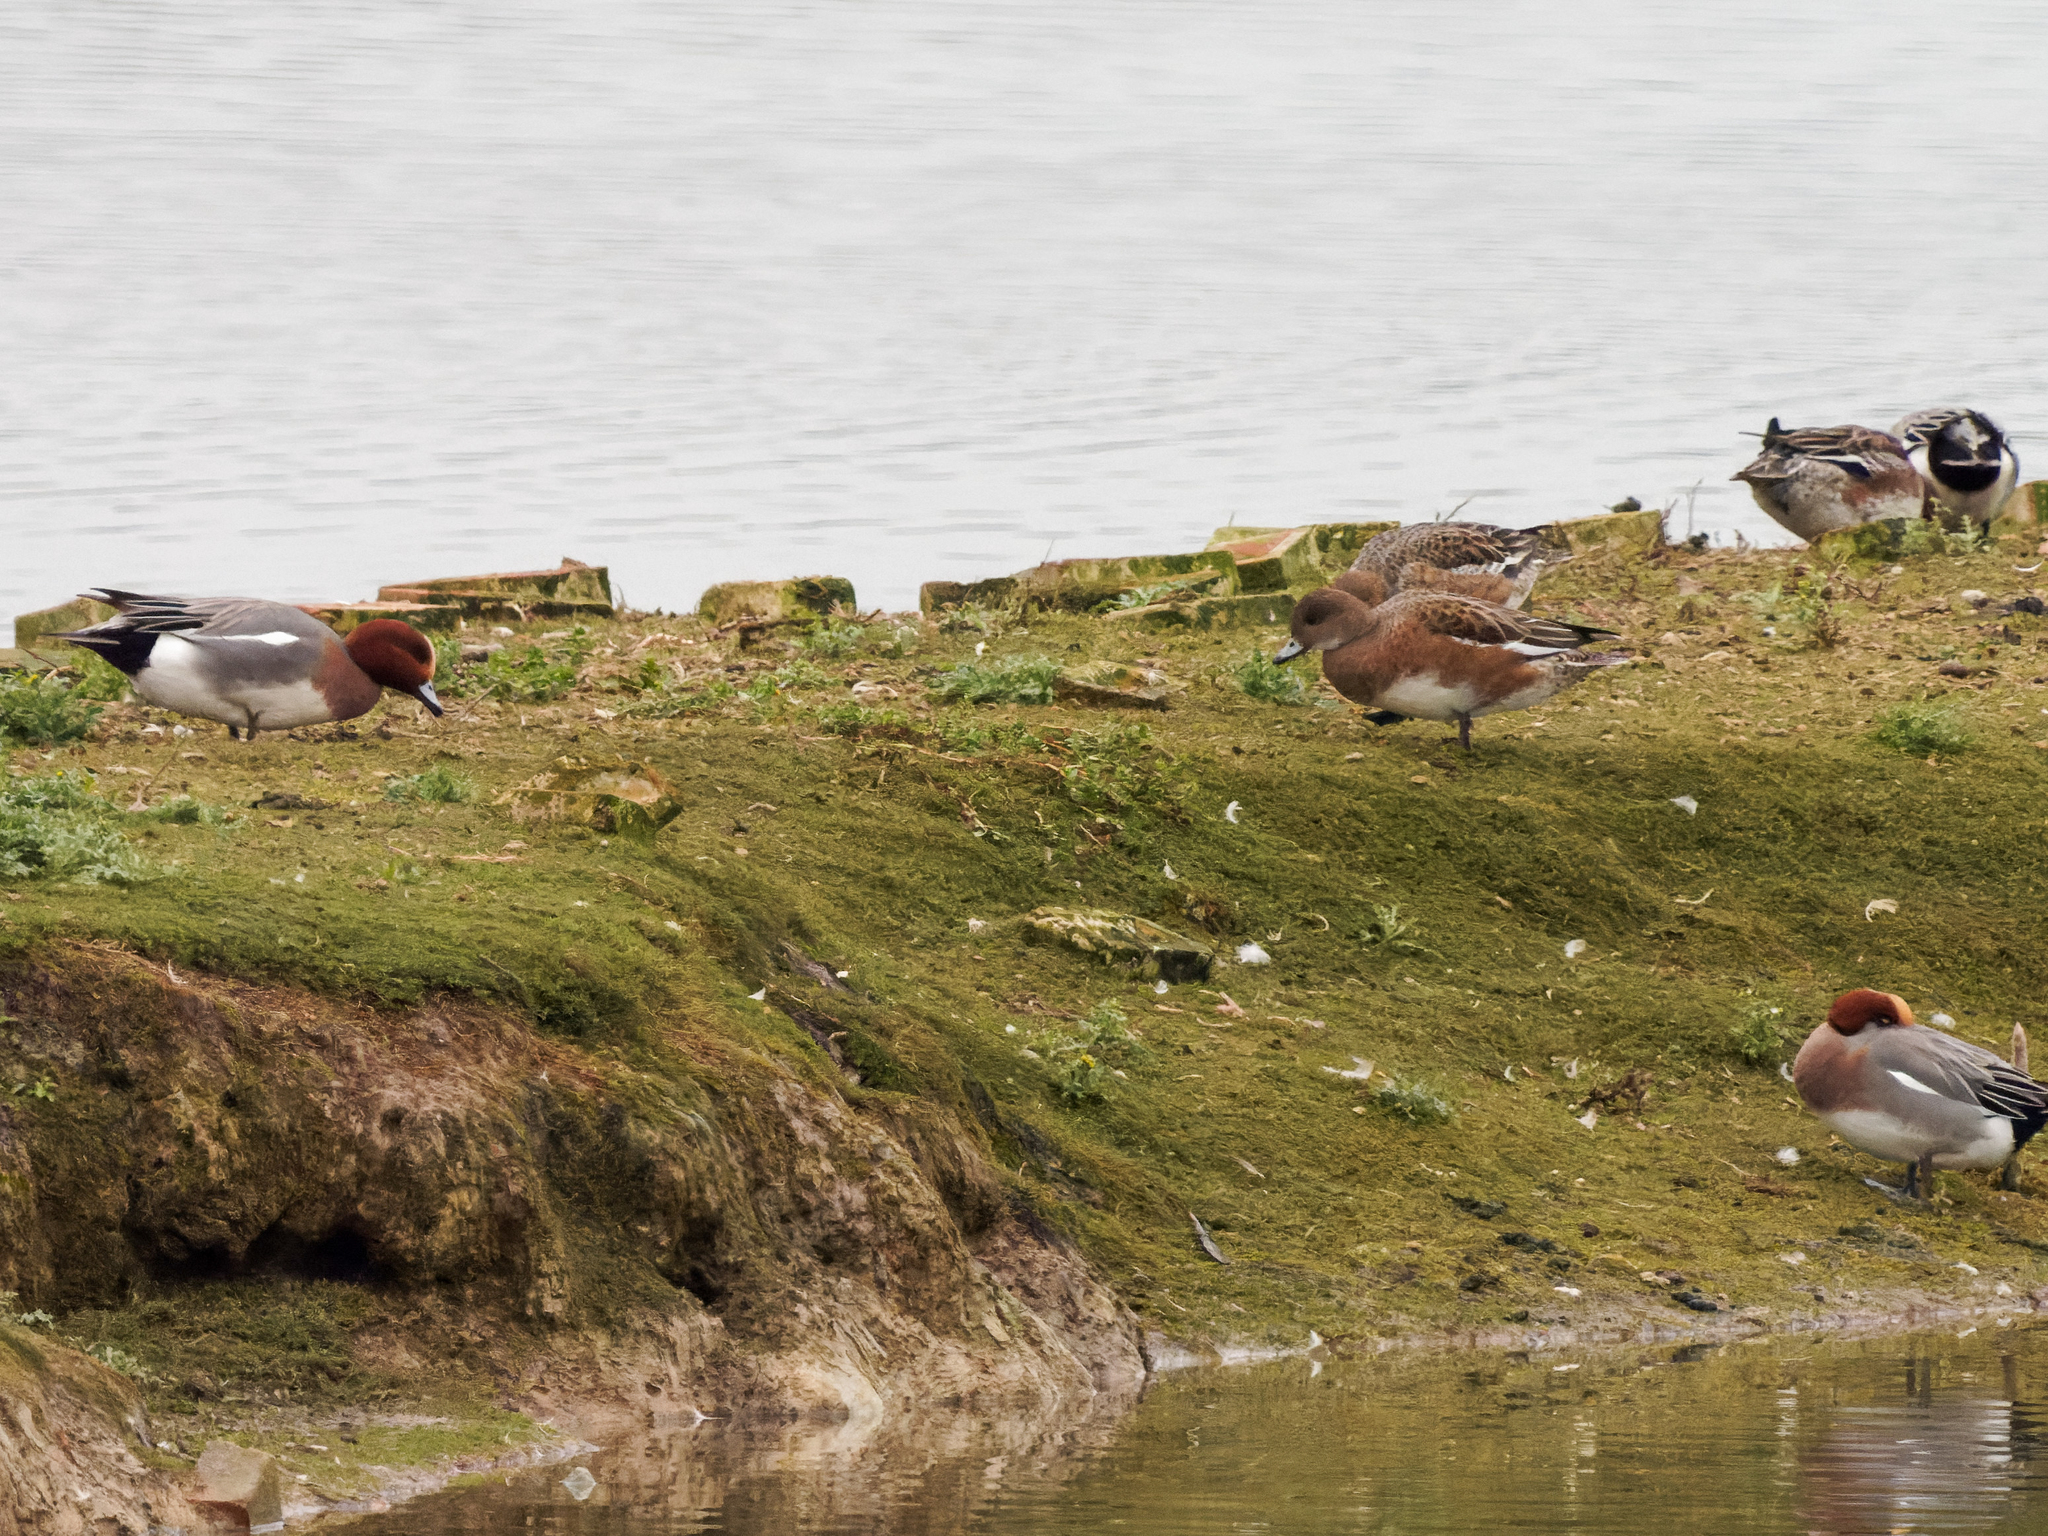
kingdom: Animalia
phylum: Chordata
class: Aves
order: Anseriformes
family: Anatidae
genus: Mareca
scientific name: Mareca penelope
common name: Eurasian wigeon
